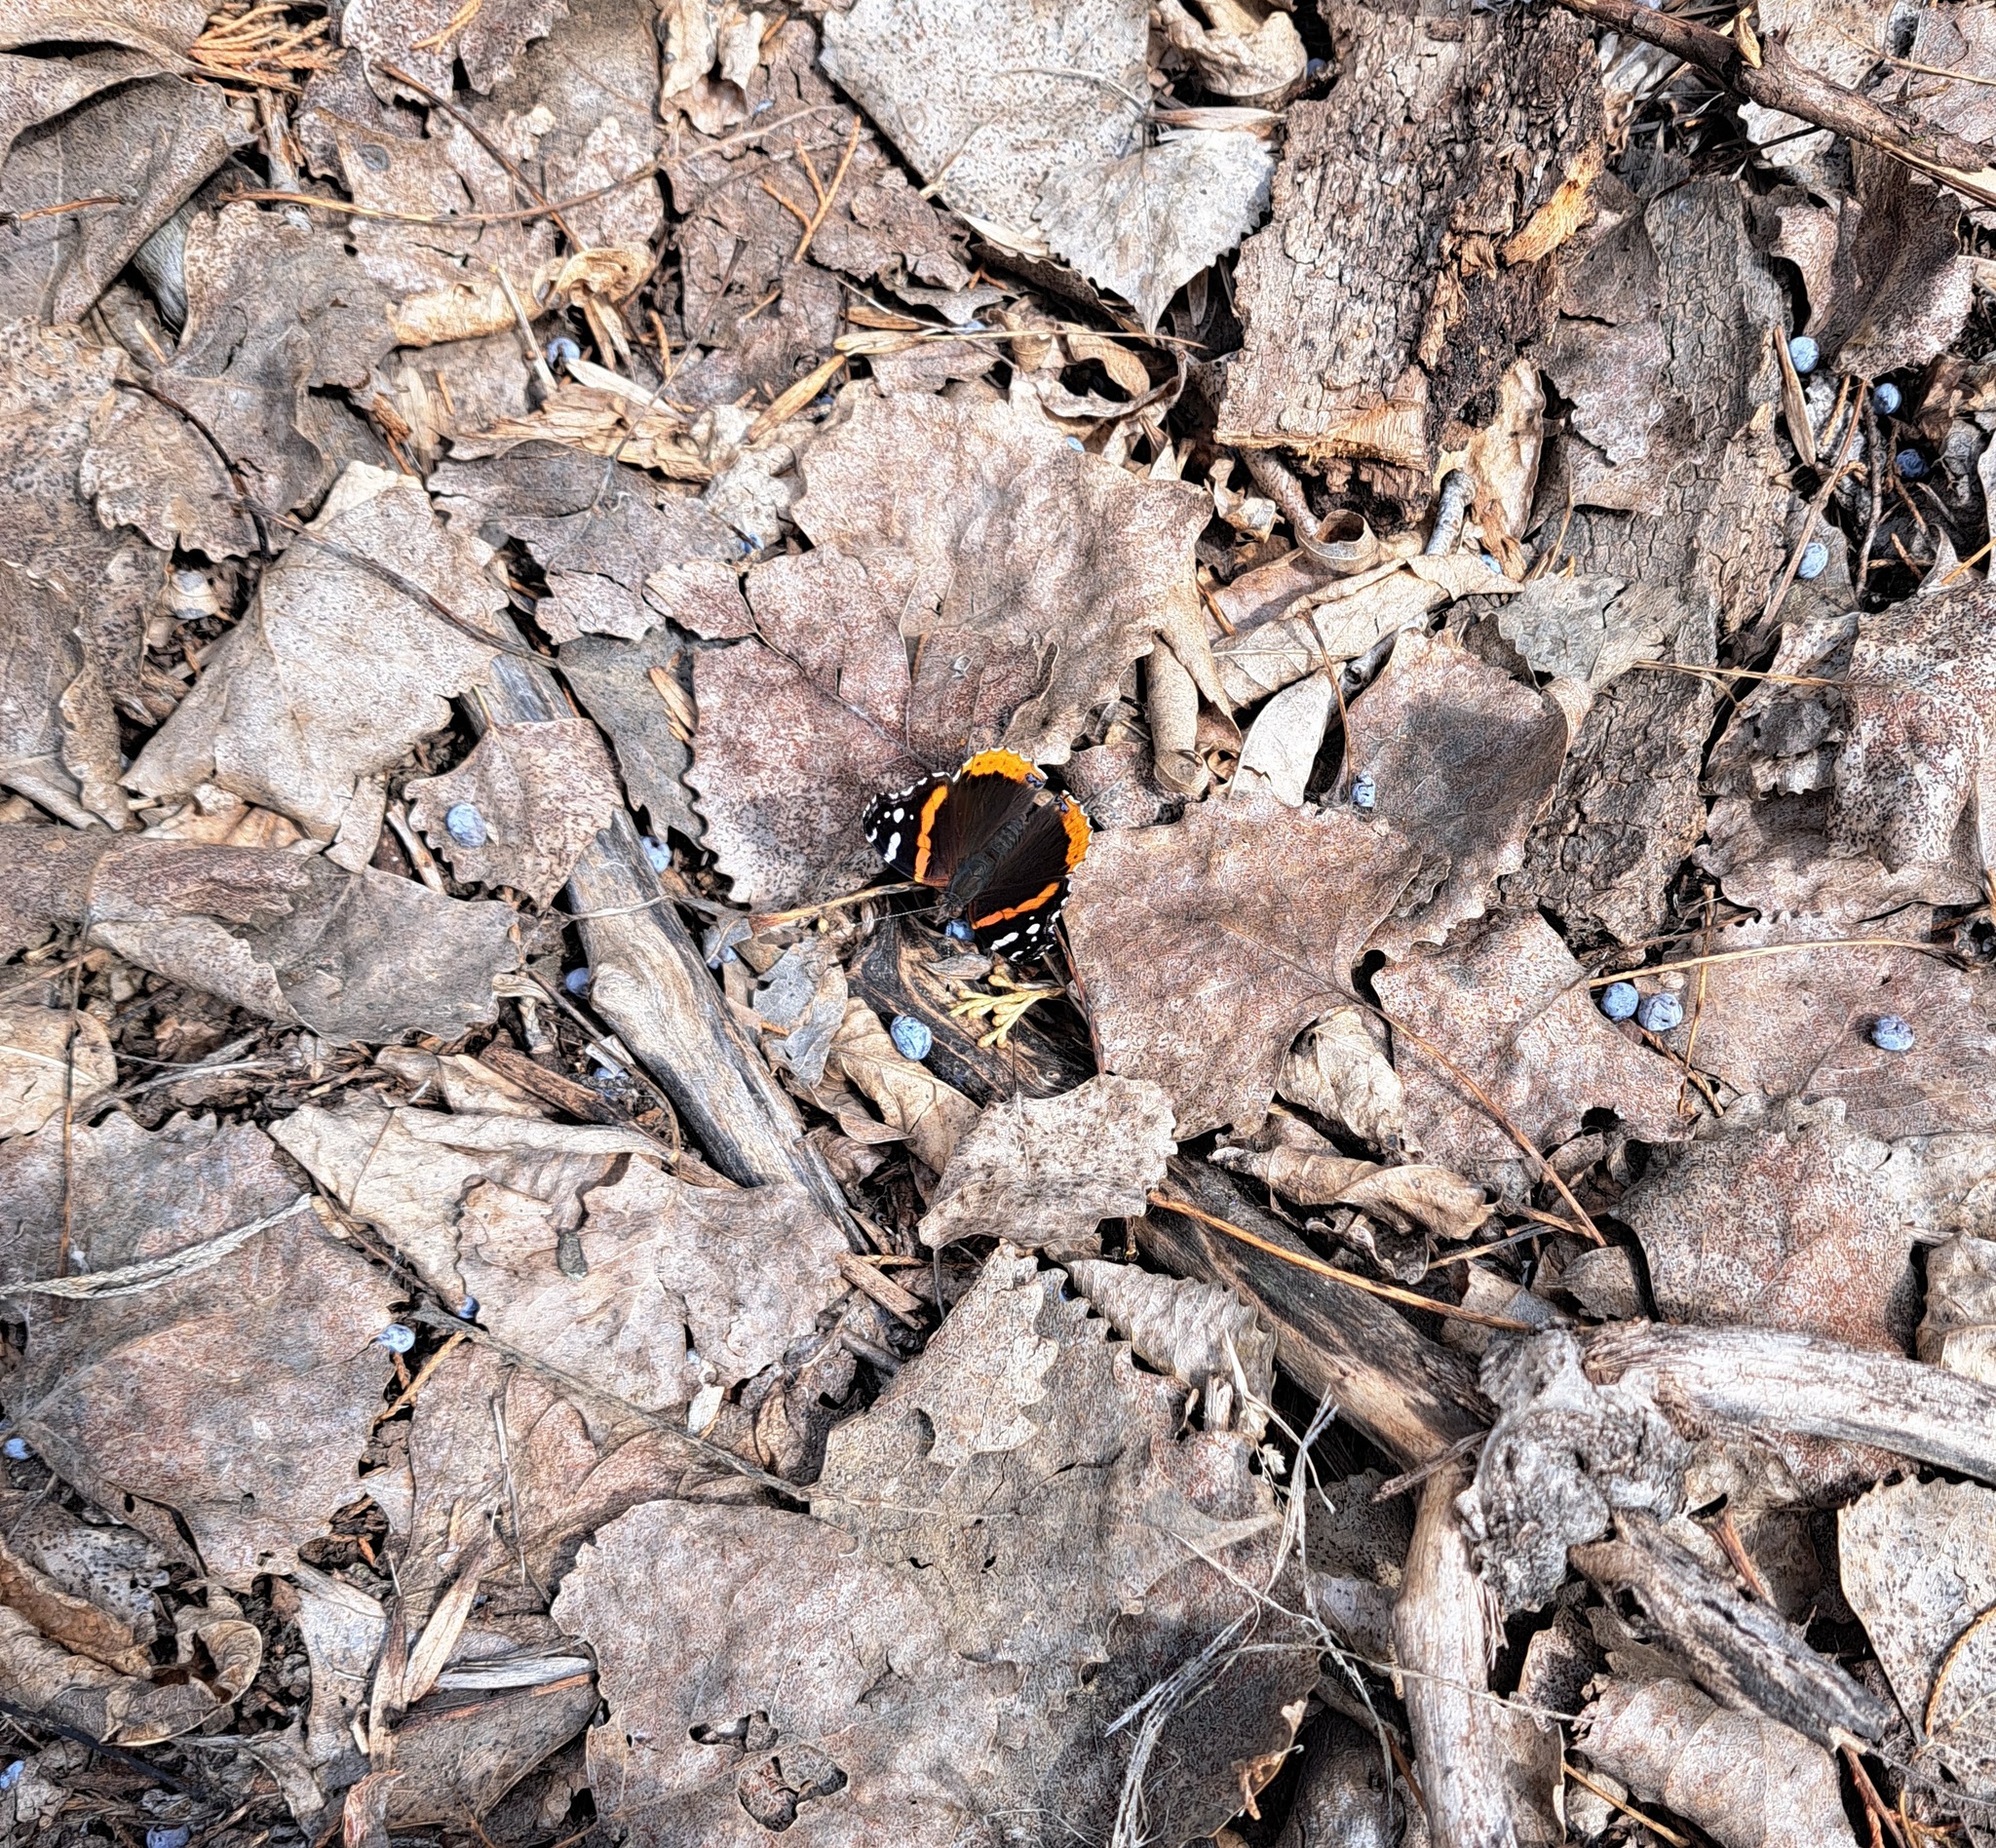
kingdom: Animalia
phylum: Arthropoda
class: Insecta
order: Lepidoptera
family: Nymphalidae
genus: Vanessa
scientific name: Vanessa atalanta
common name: Red admiral
